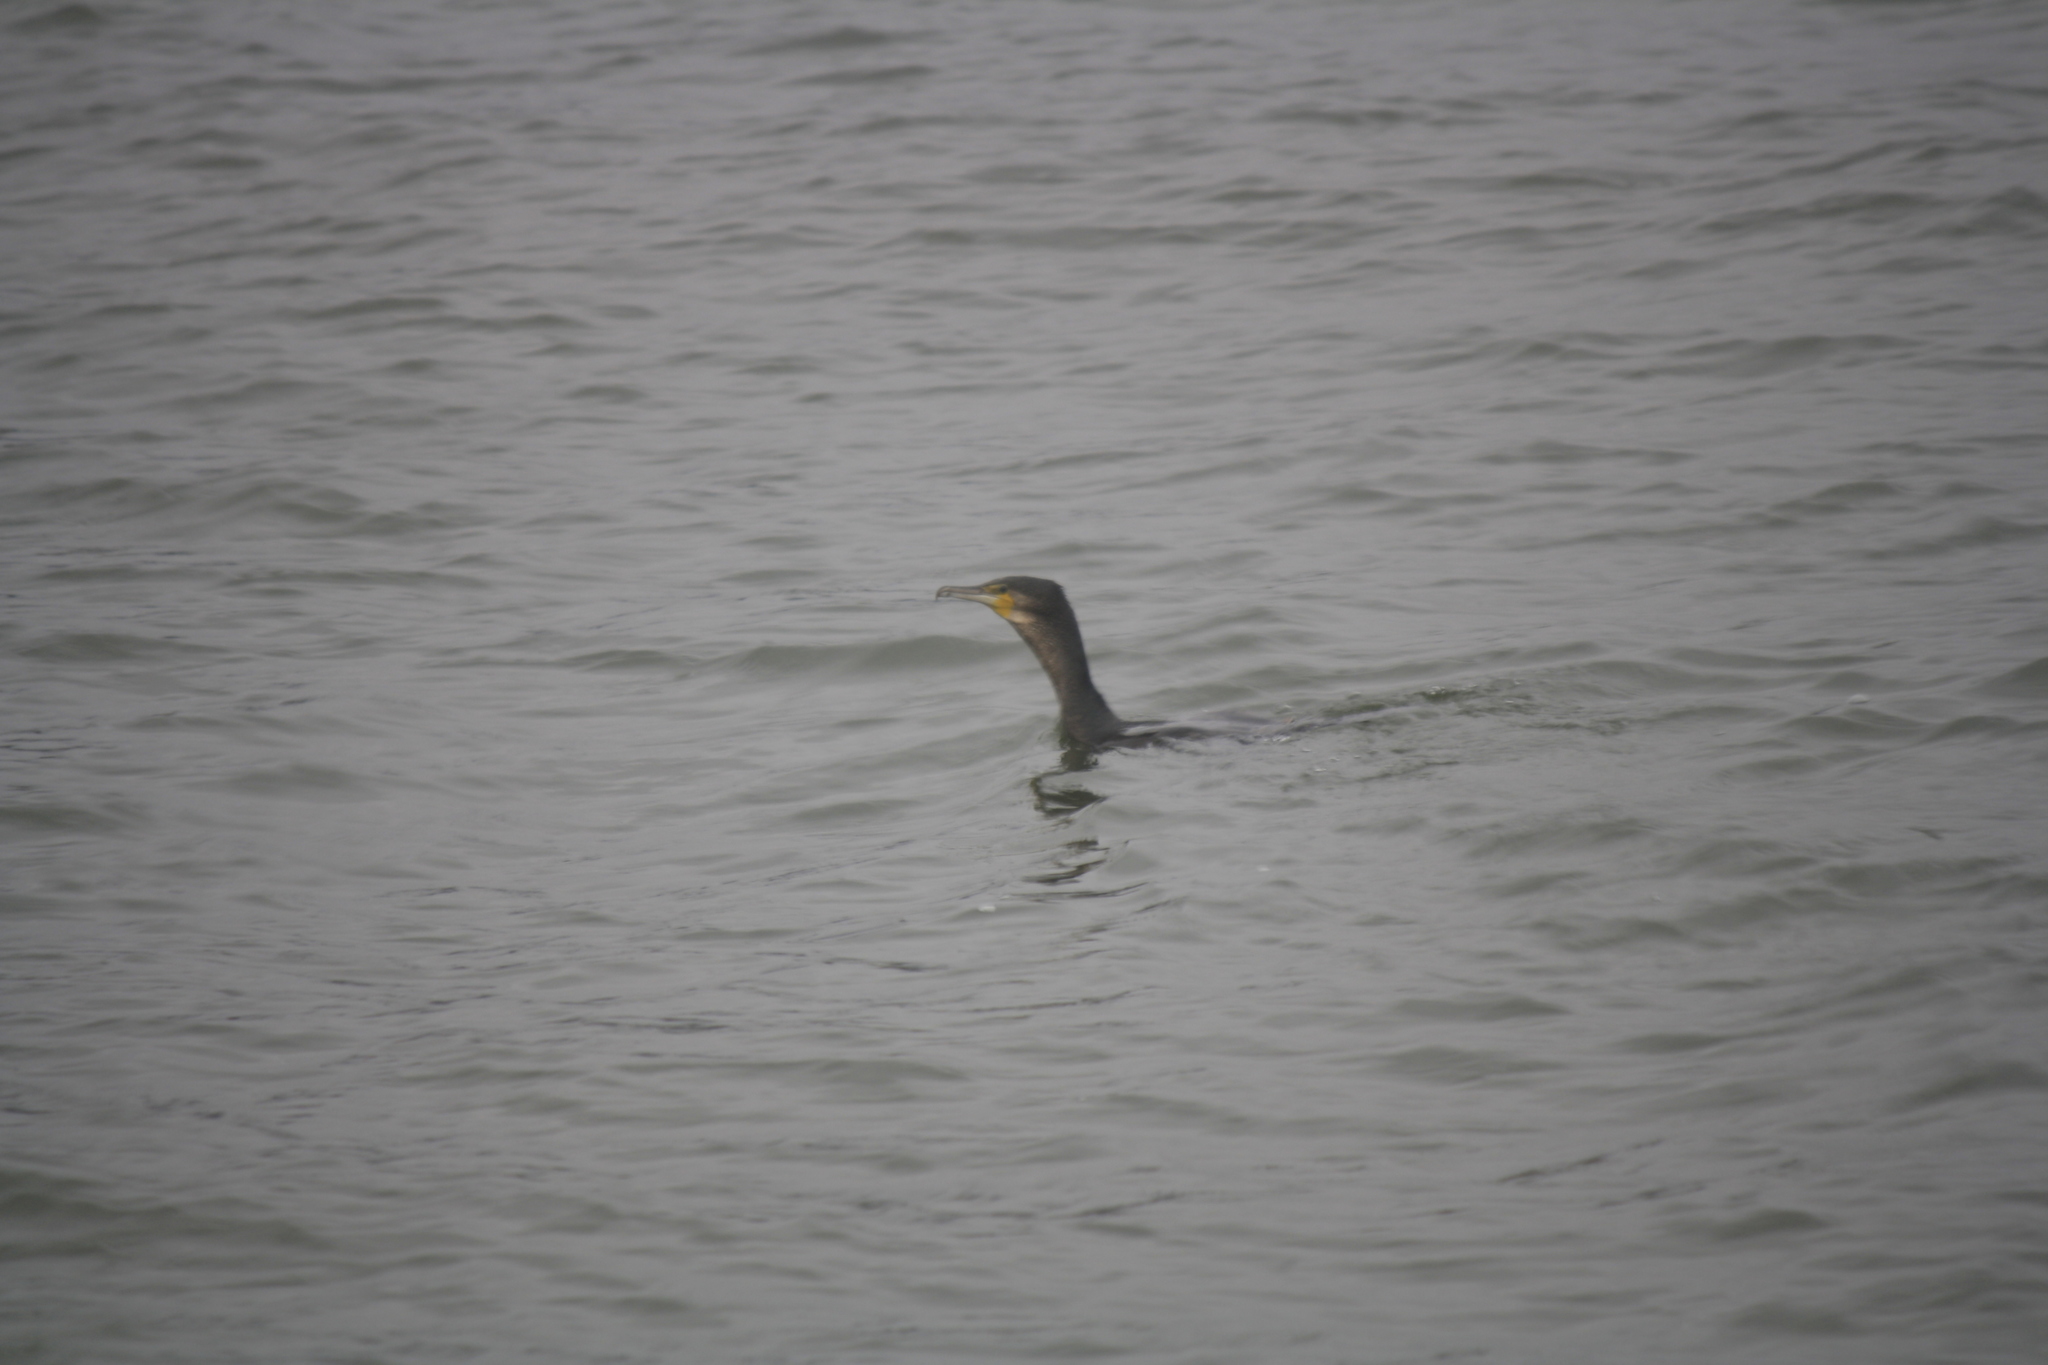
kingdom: Animalia
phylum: Chordata
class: Aves
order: Suliformes
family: Phalacrocoracidae
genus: Phalacrocorax
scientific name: Phalacrocorax carbo
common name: Great cormorant
